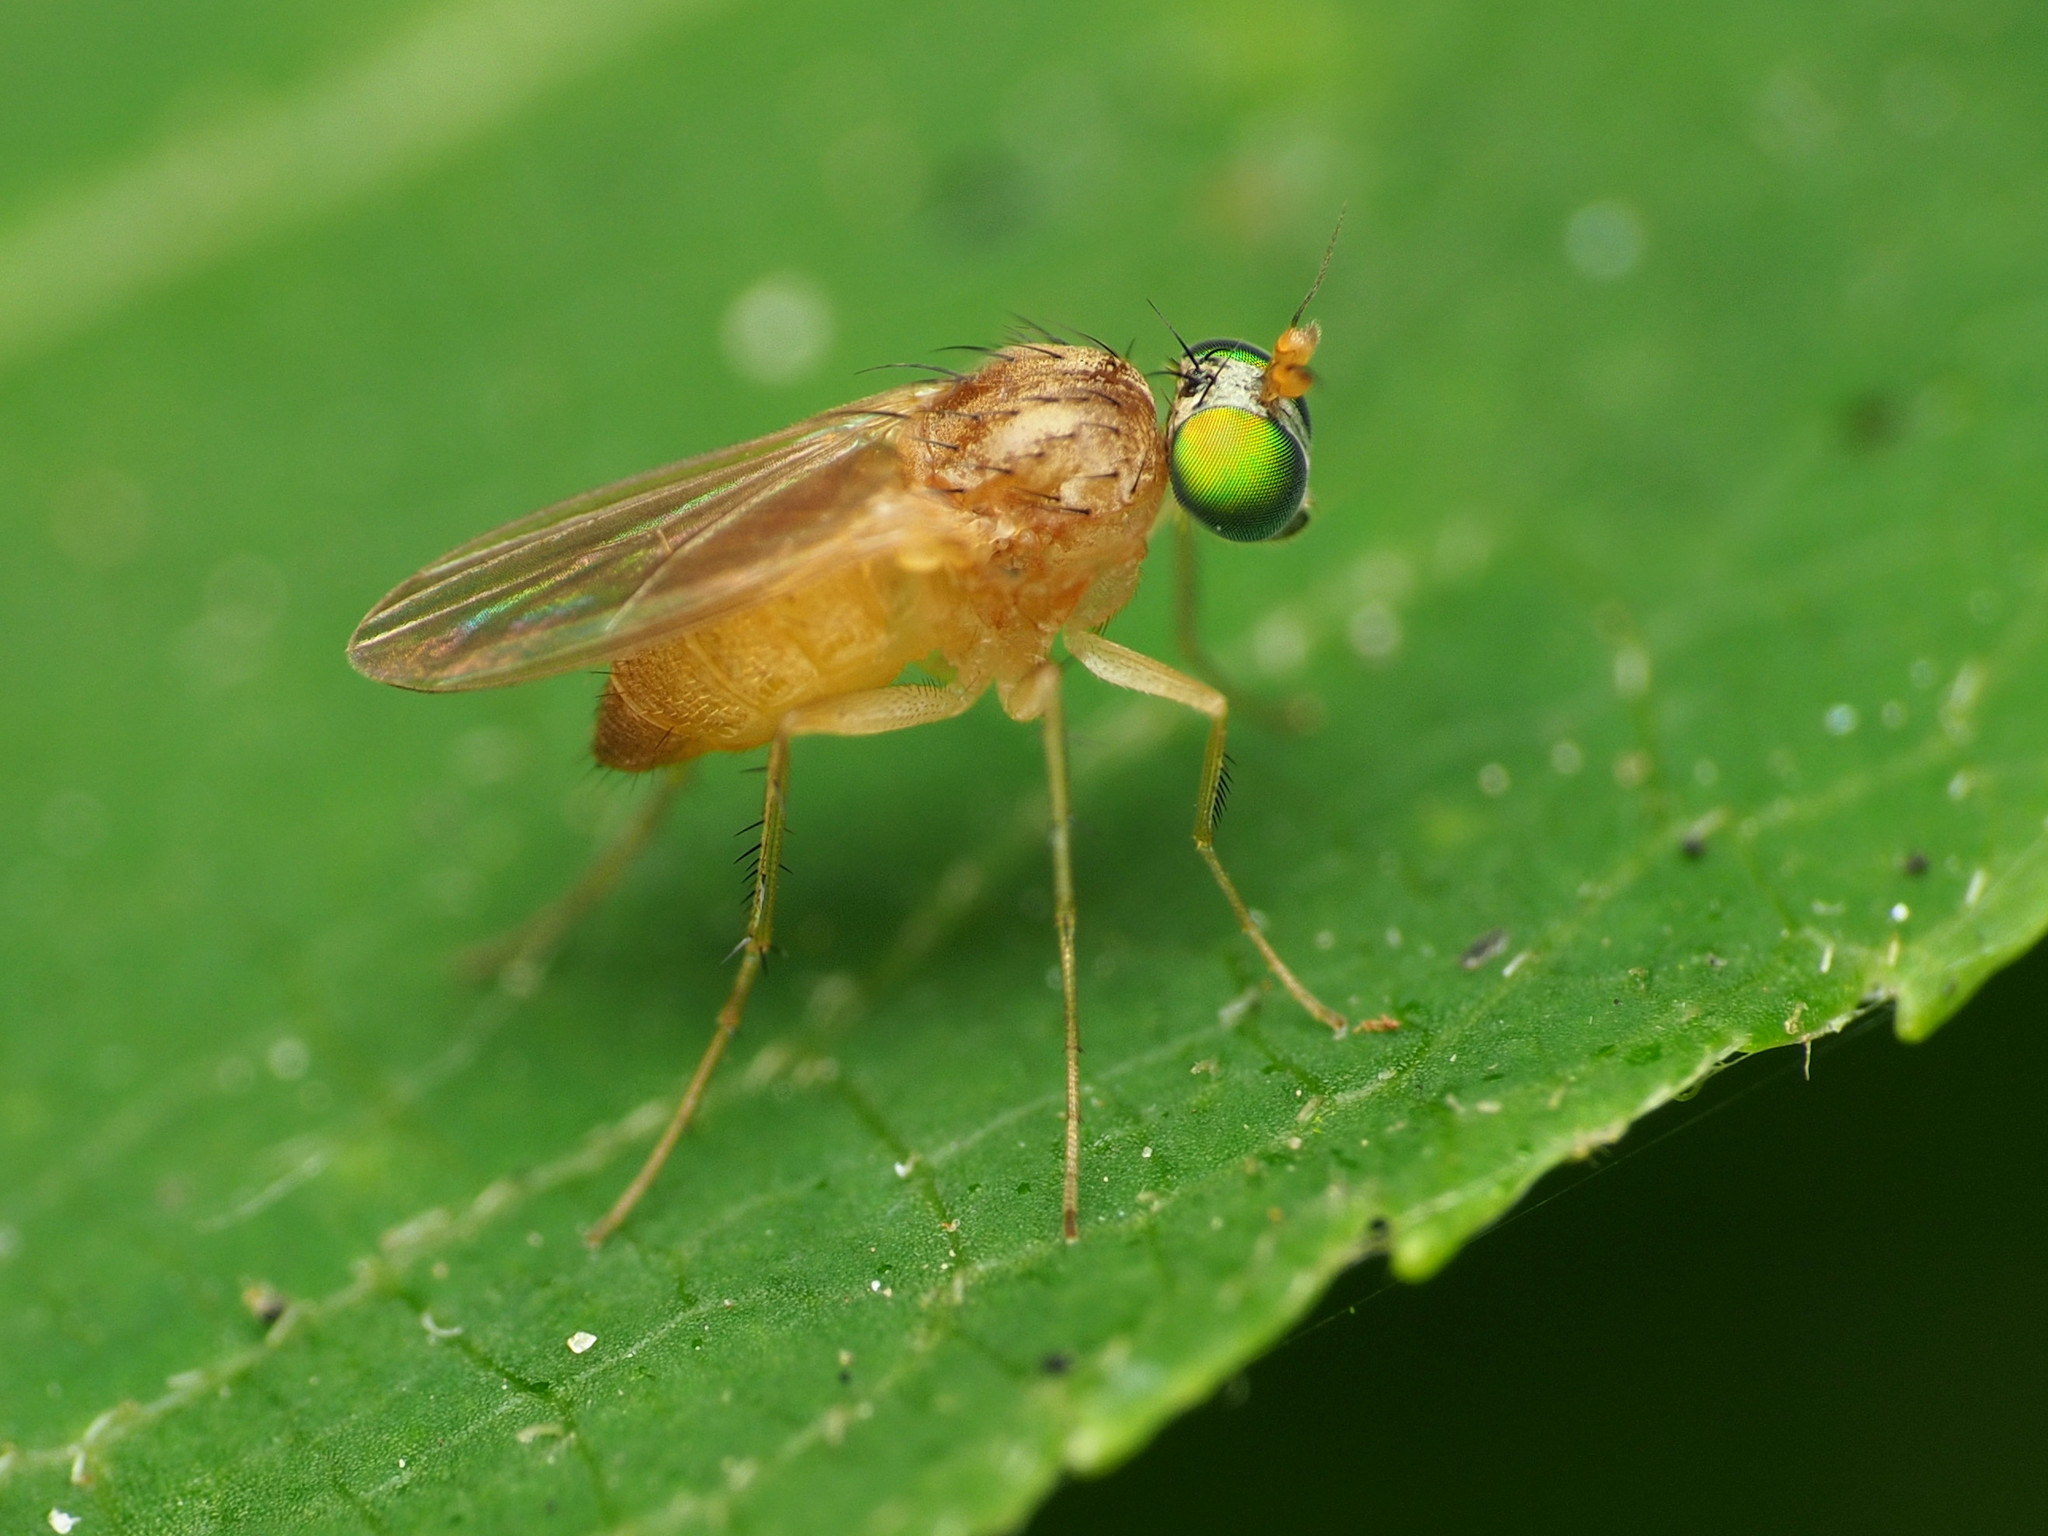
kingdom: Animalia
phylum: Arthropoda
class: Insecta
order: Diptera
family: Dolichopodidae
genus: Gymnopternus
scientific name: Gymnopternus flavus
